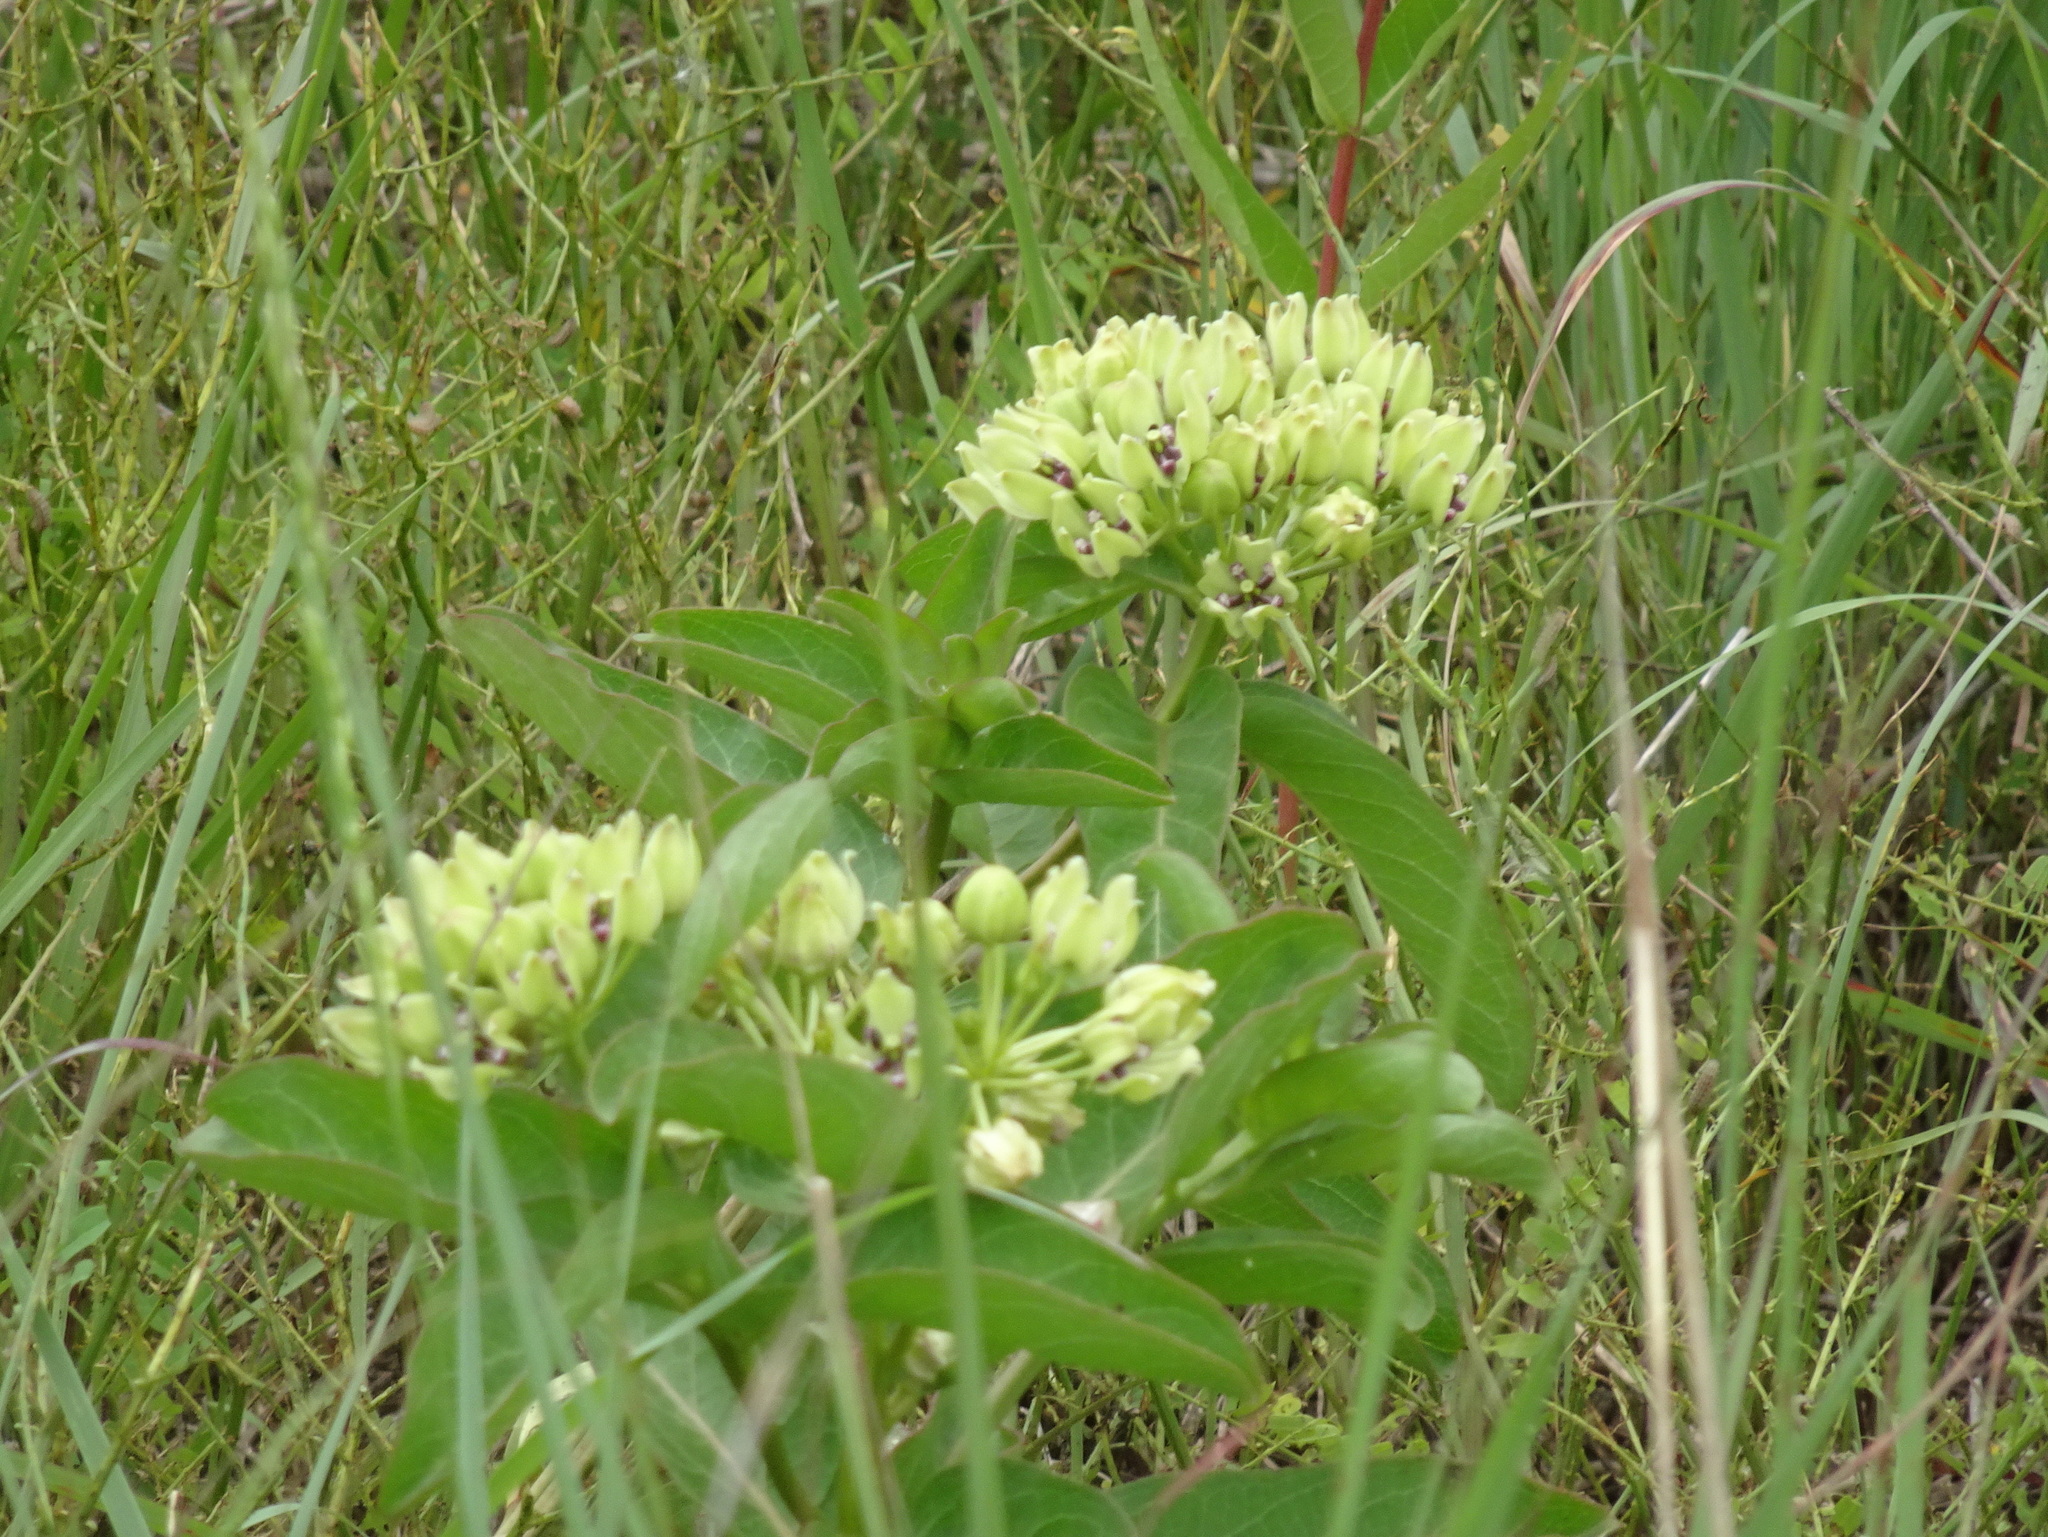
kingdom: Plantae
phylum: Tracheophyta
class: Magnoliopsida
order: Gentianales
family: Apocynaceae
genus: Asclepias
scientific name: Asclepias viridis
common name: Antelope-horns
